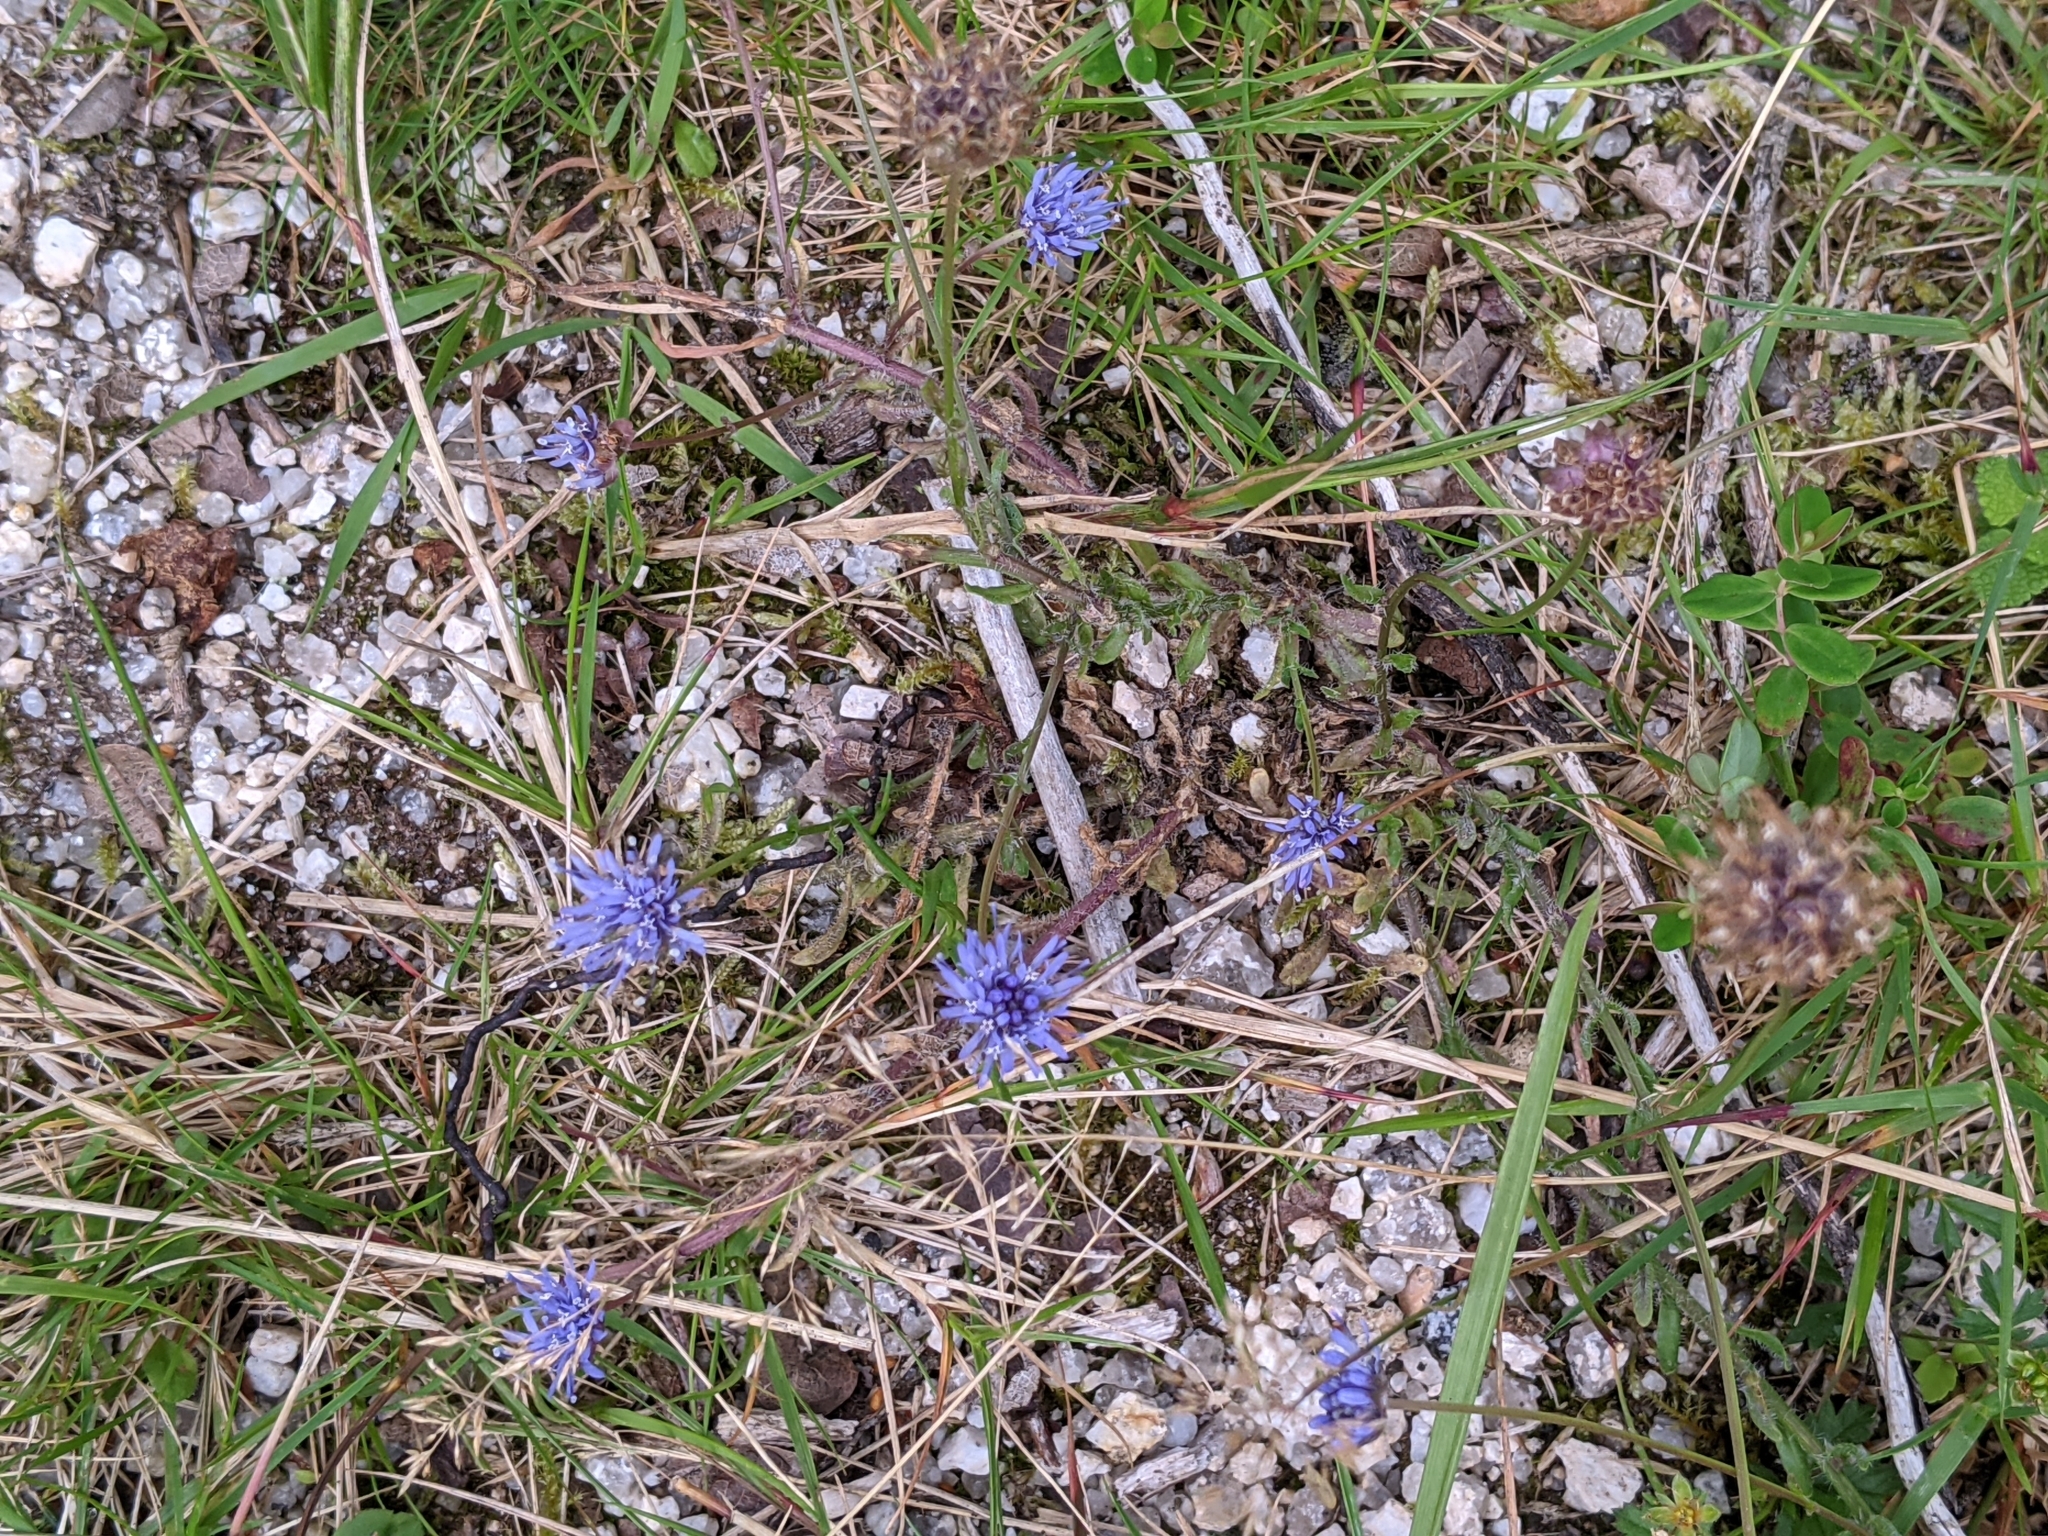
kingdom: Plantae
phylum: Tracheophyta
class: Magnoliopsida
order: Asterales
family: Campanulaceae
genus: Jasione
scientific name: Jasione montana
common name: Sheep's-bit
